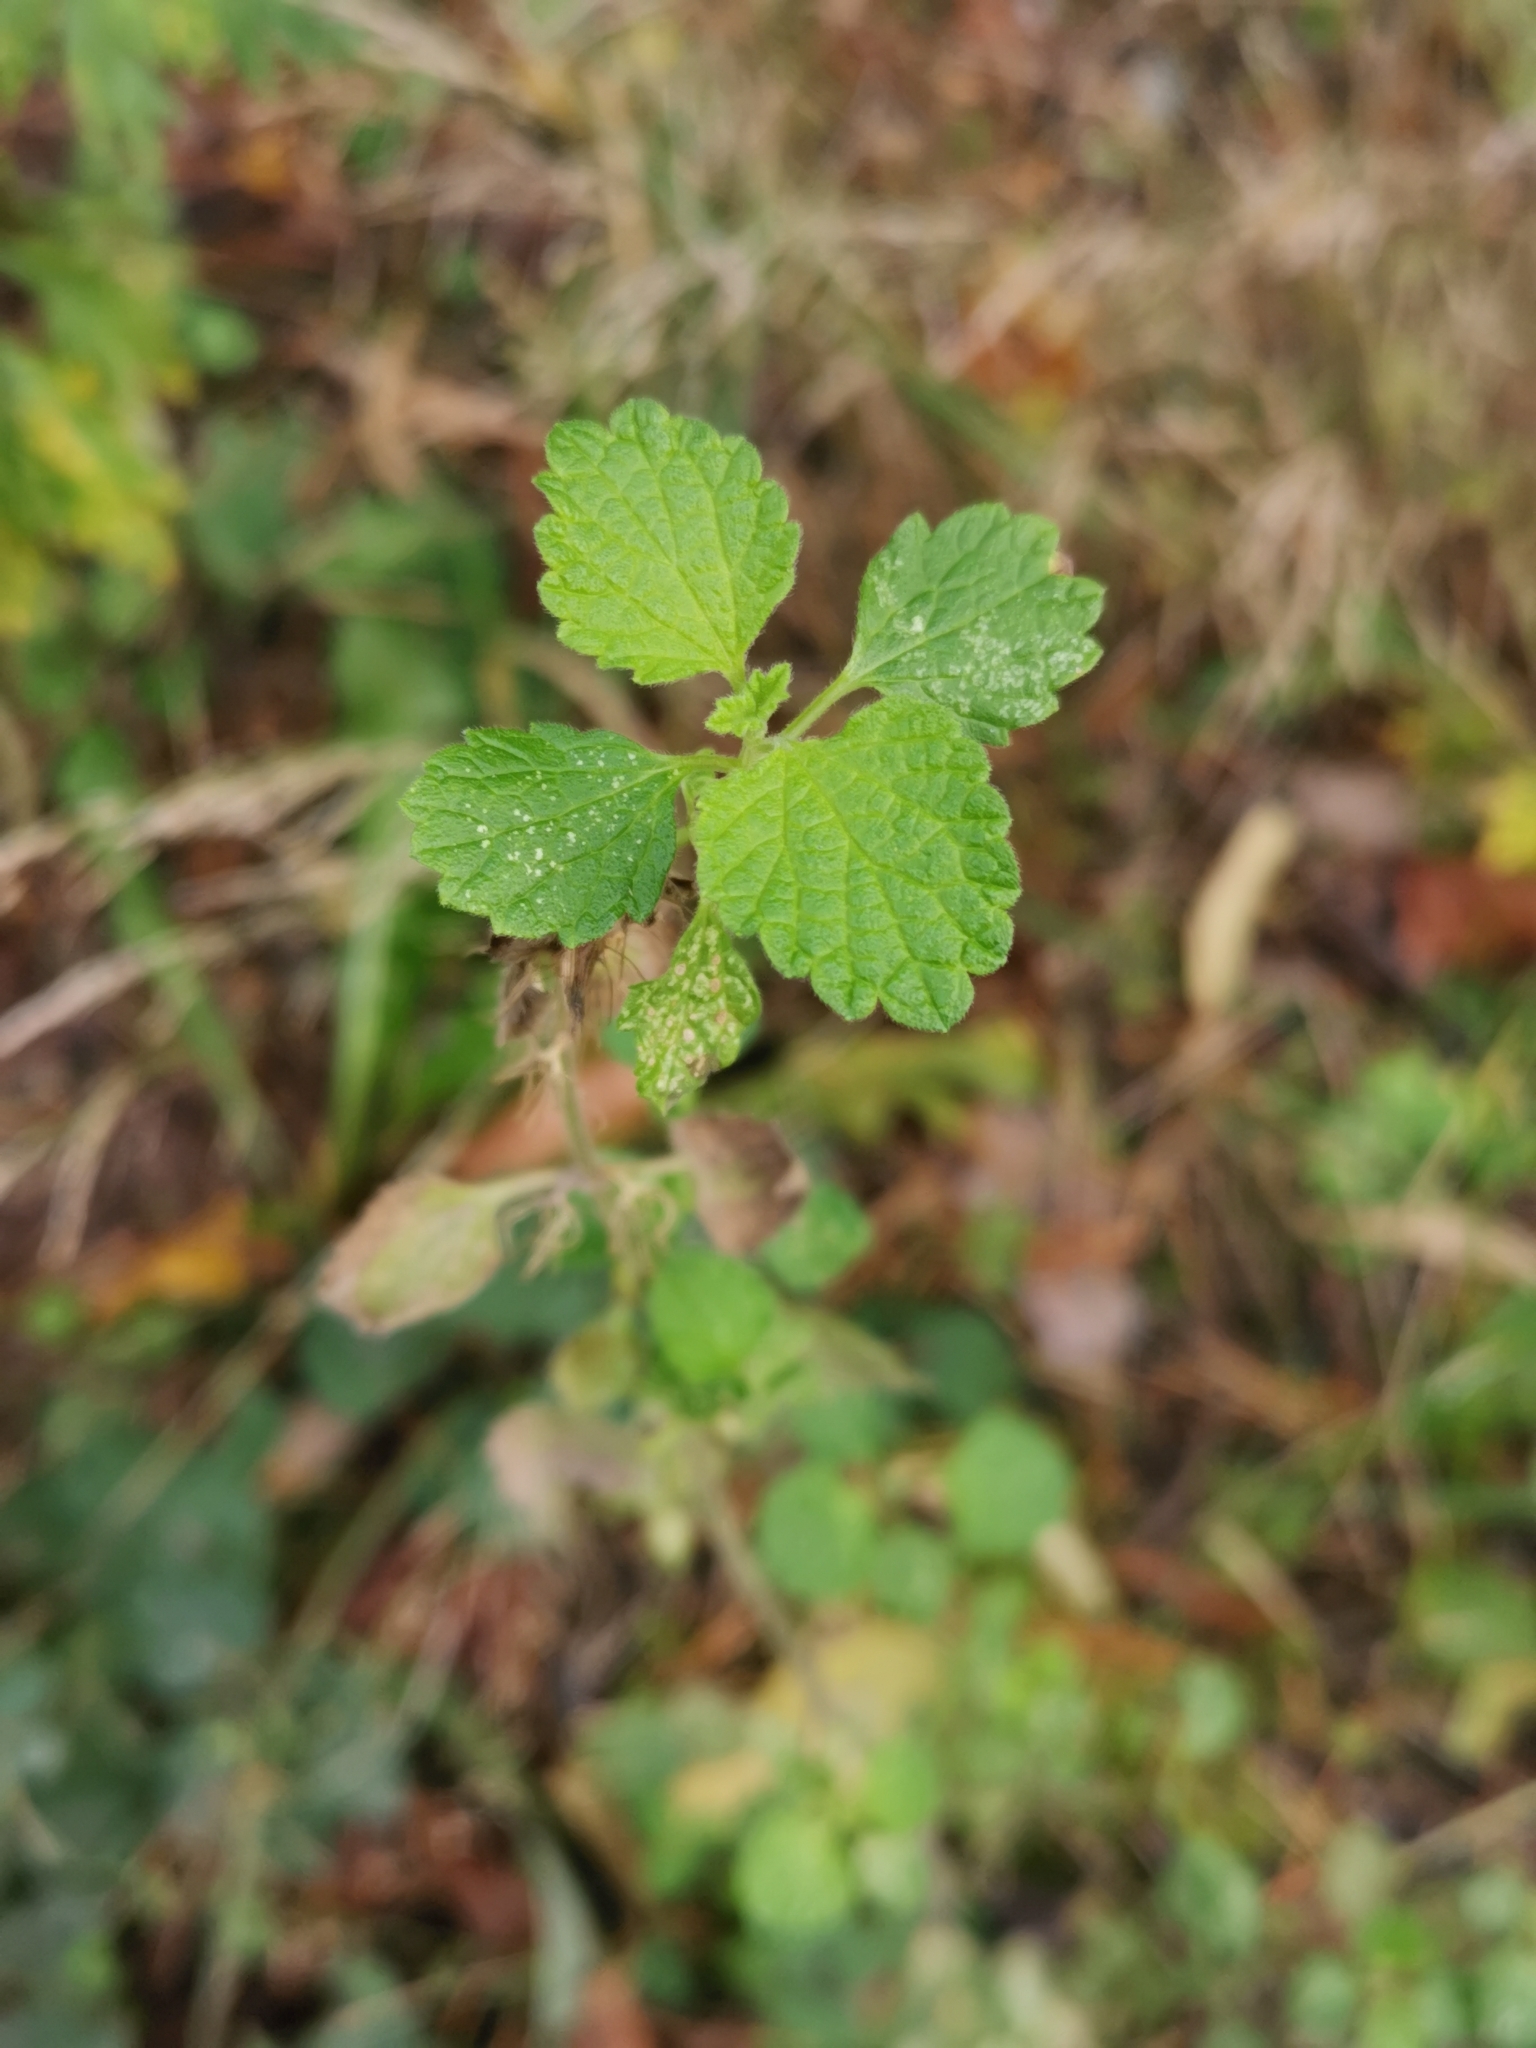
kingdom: Plantae
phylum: Tracheophyta
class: Magnoliopsida
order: Lamiales
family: Lamiaceae
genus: Ballota
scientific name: Ballota nigra
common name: Black horehound
